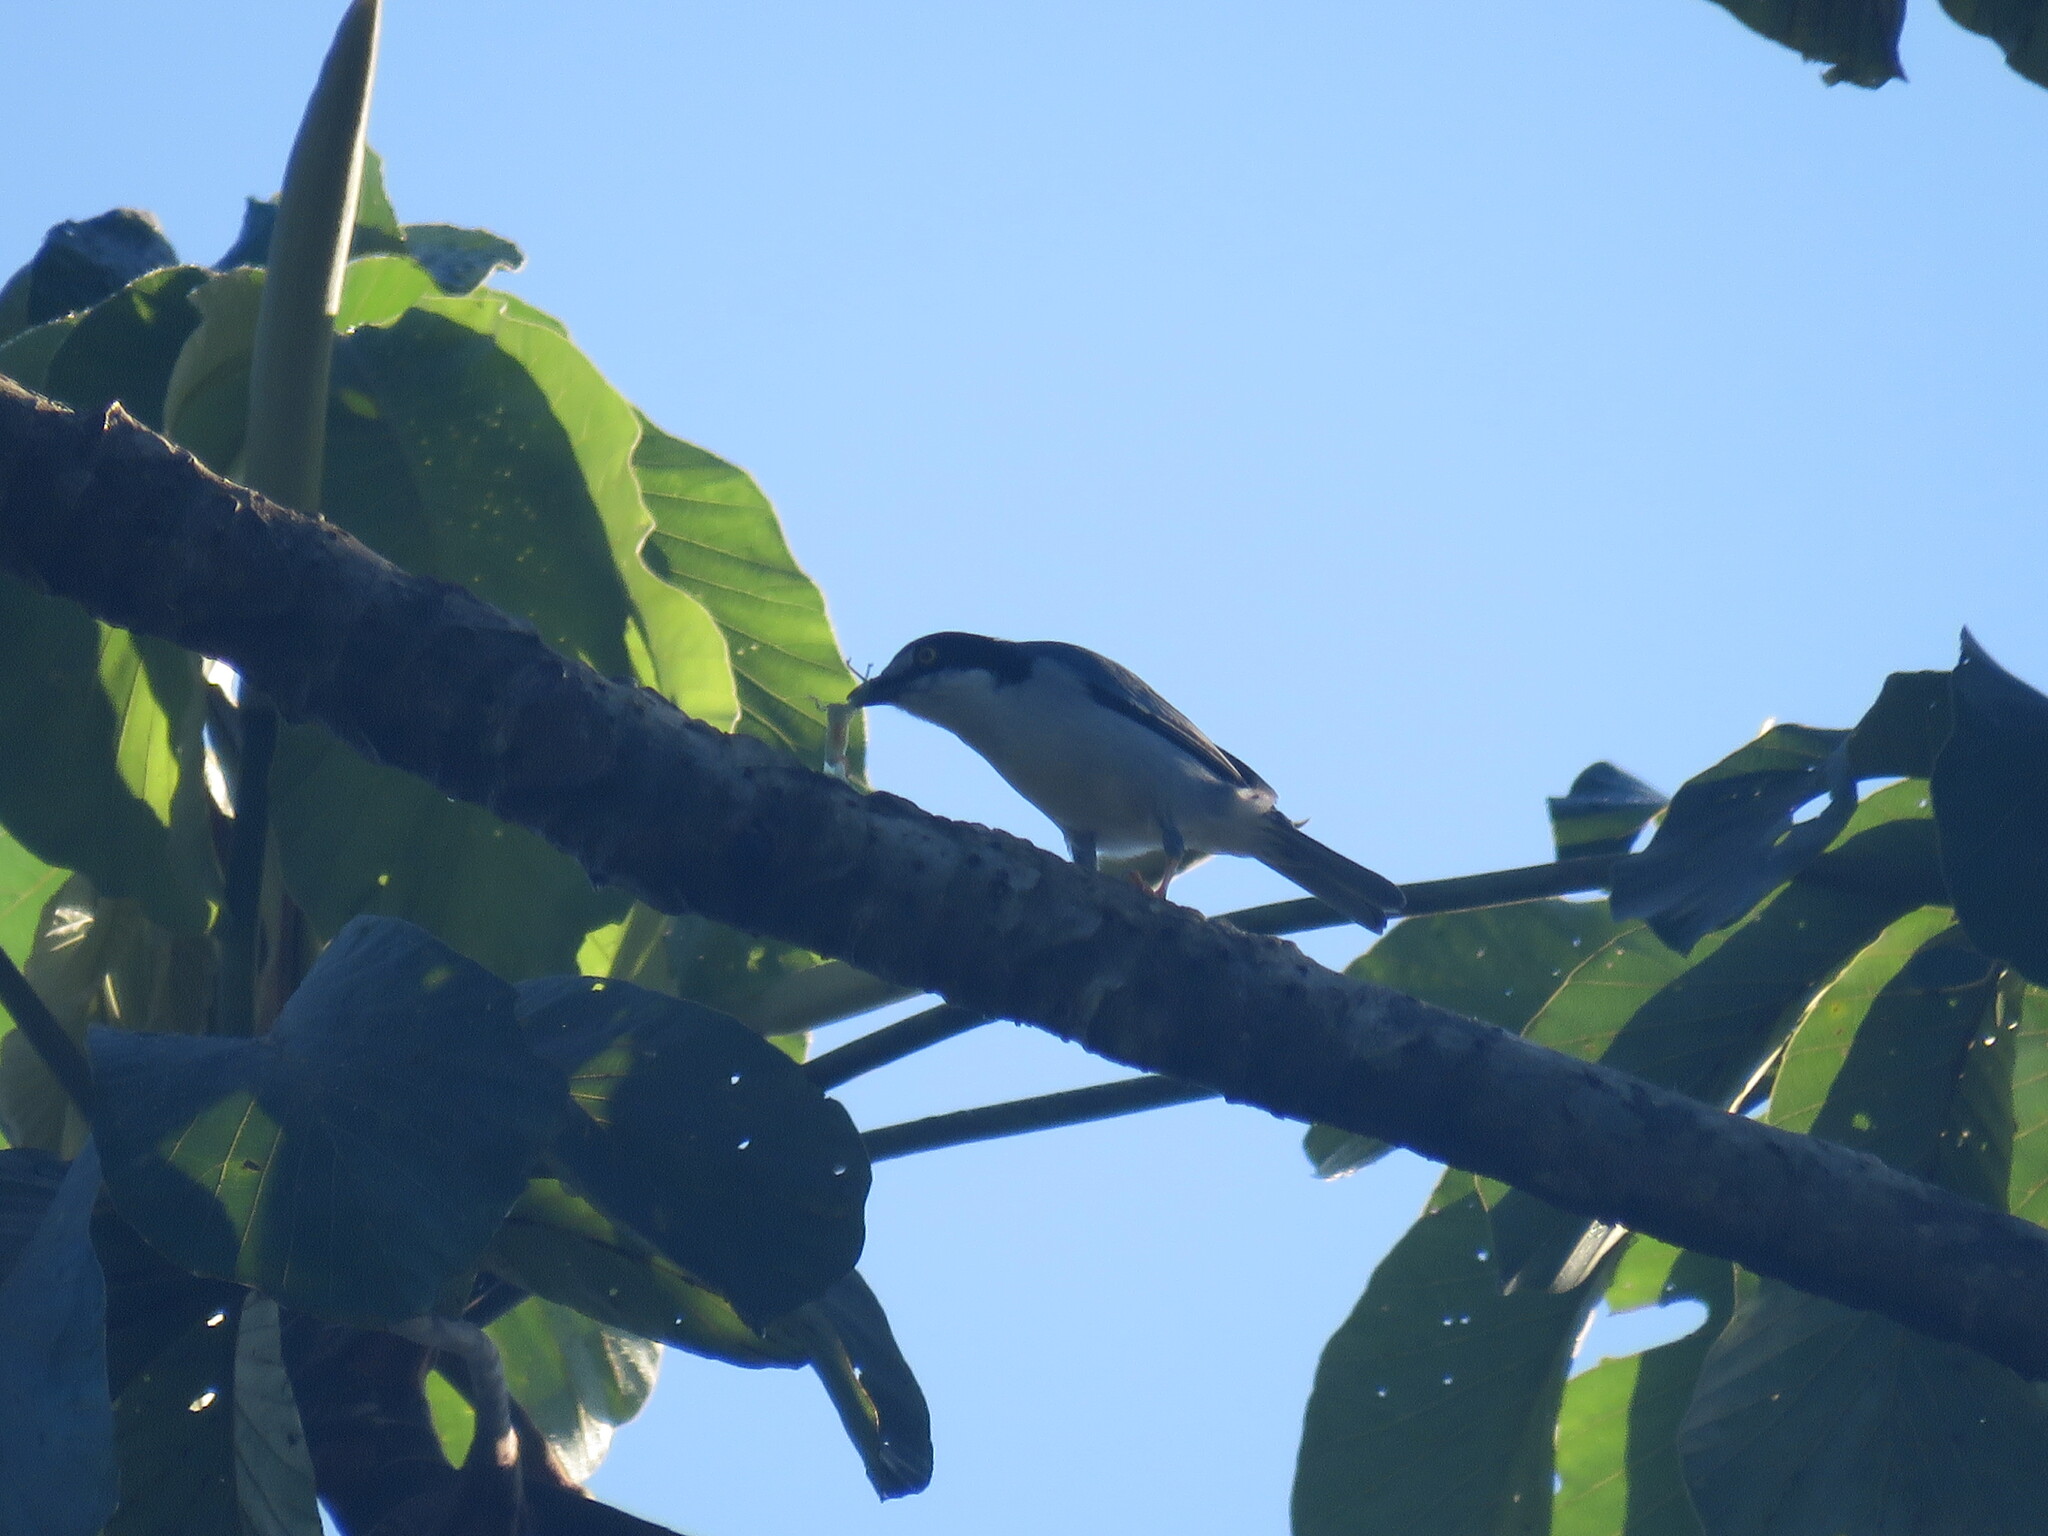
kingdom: Animalia
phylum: Chordata
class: Aves
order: Passeriformes
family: Thraupidae
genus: Nemosia
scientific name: Nemosia pileata
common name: Hooded tanager
